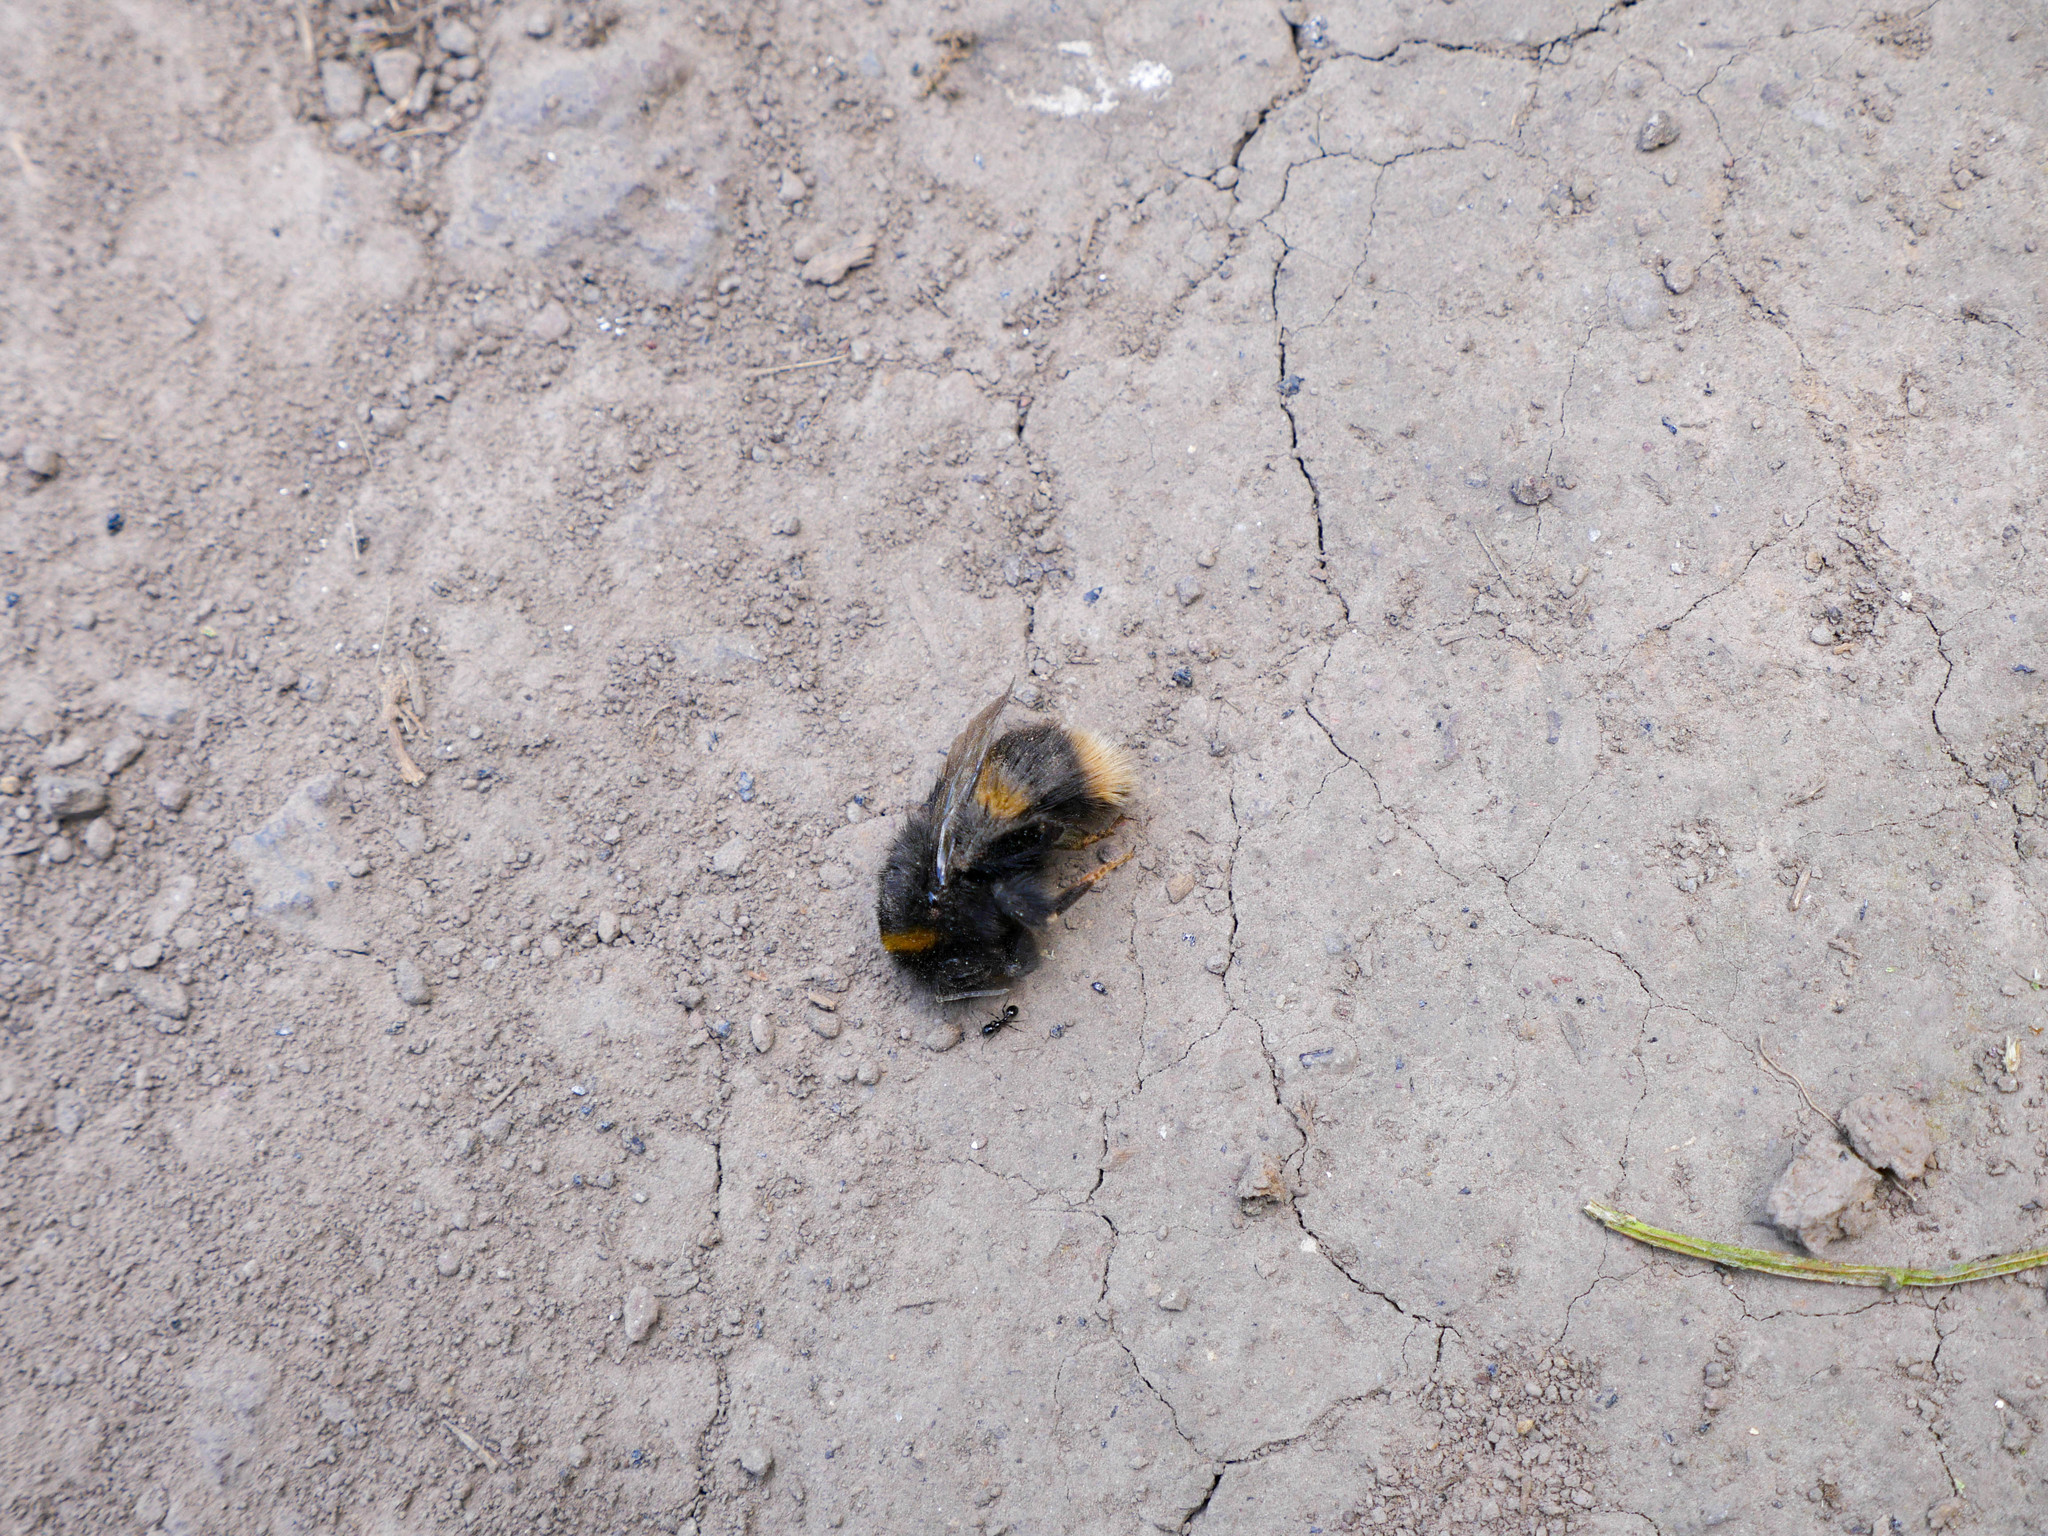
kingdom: Animalia
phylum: Arthropoda
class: Insecta
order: Hymenoptera
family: Apidae
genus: Bombus
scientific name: Bombus terrestris
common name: Buff-tailed bumblebee
